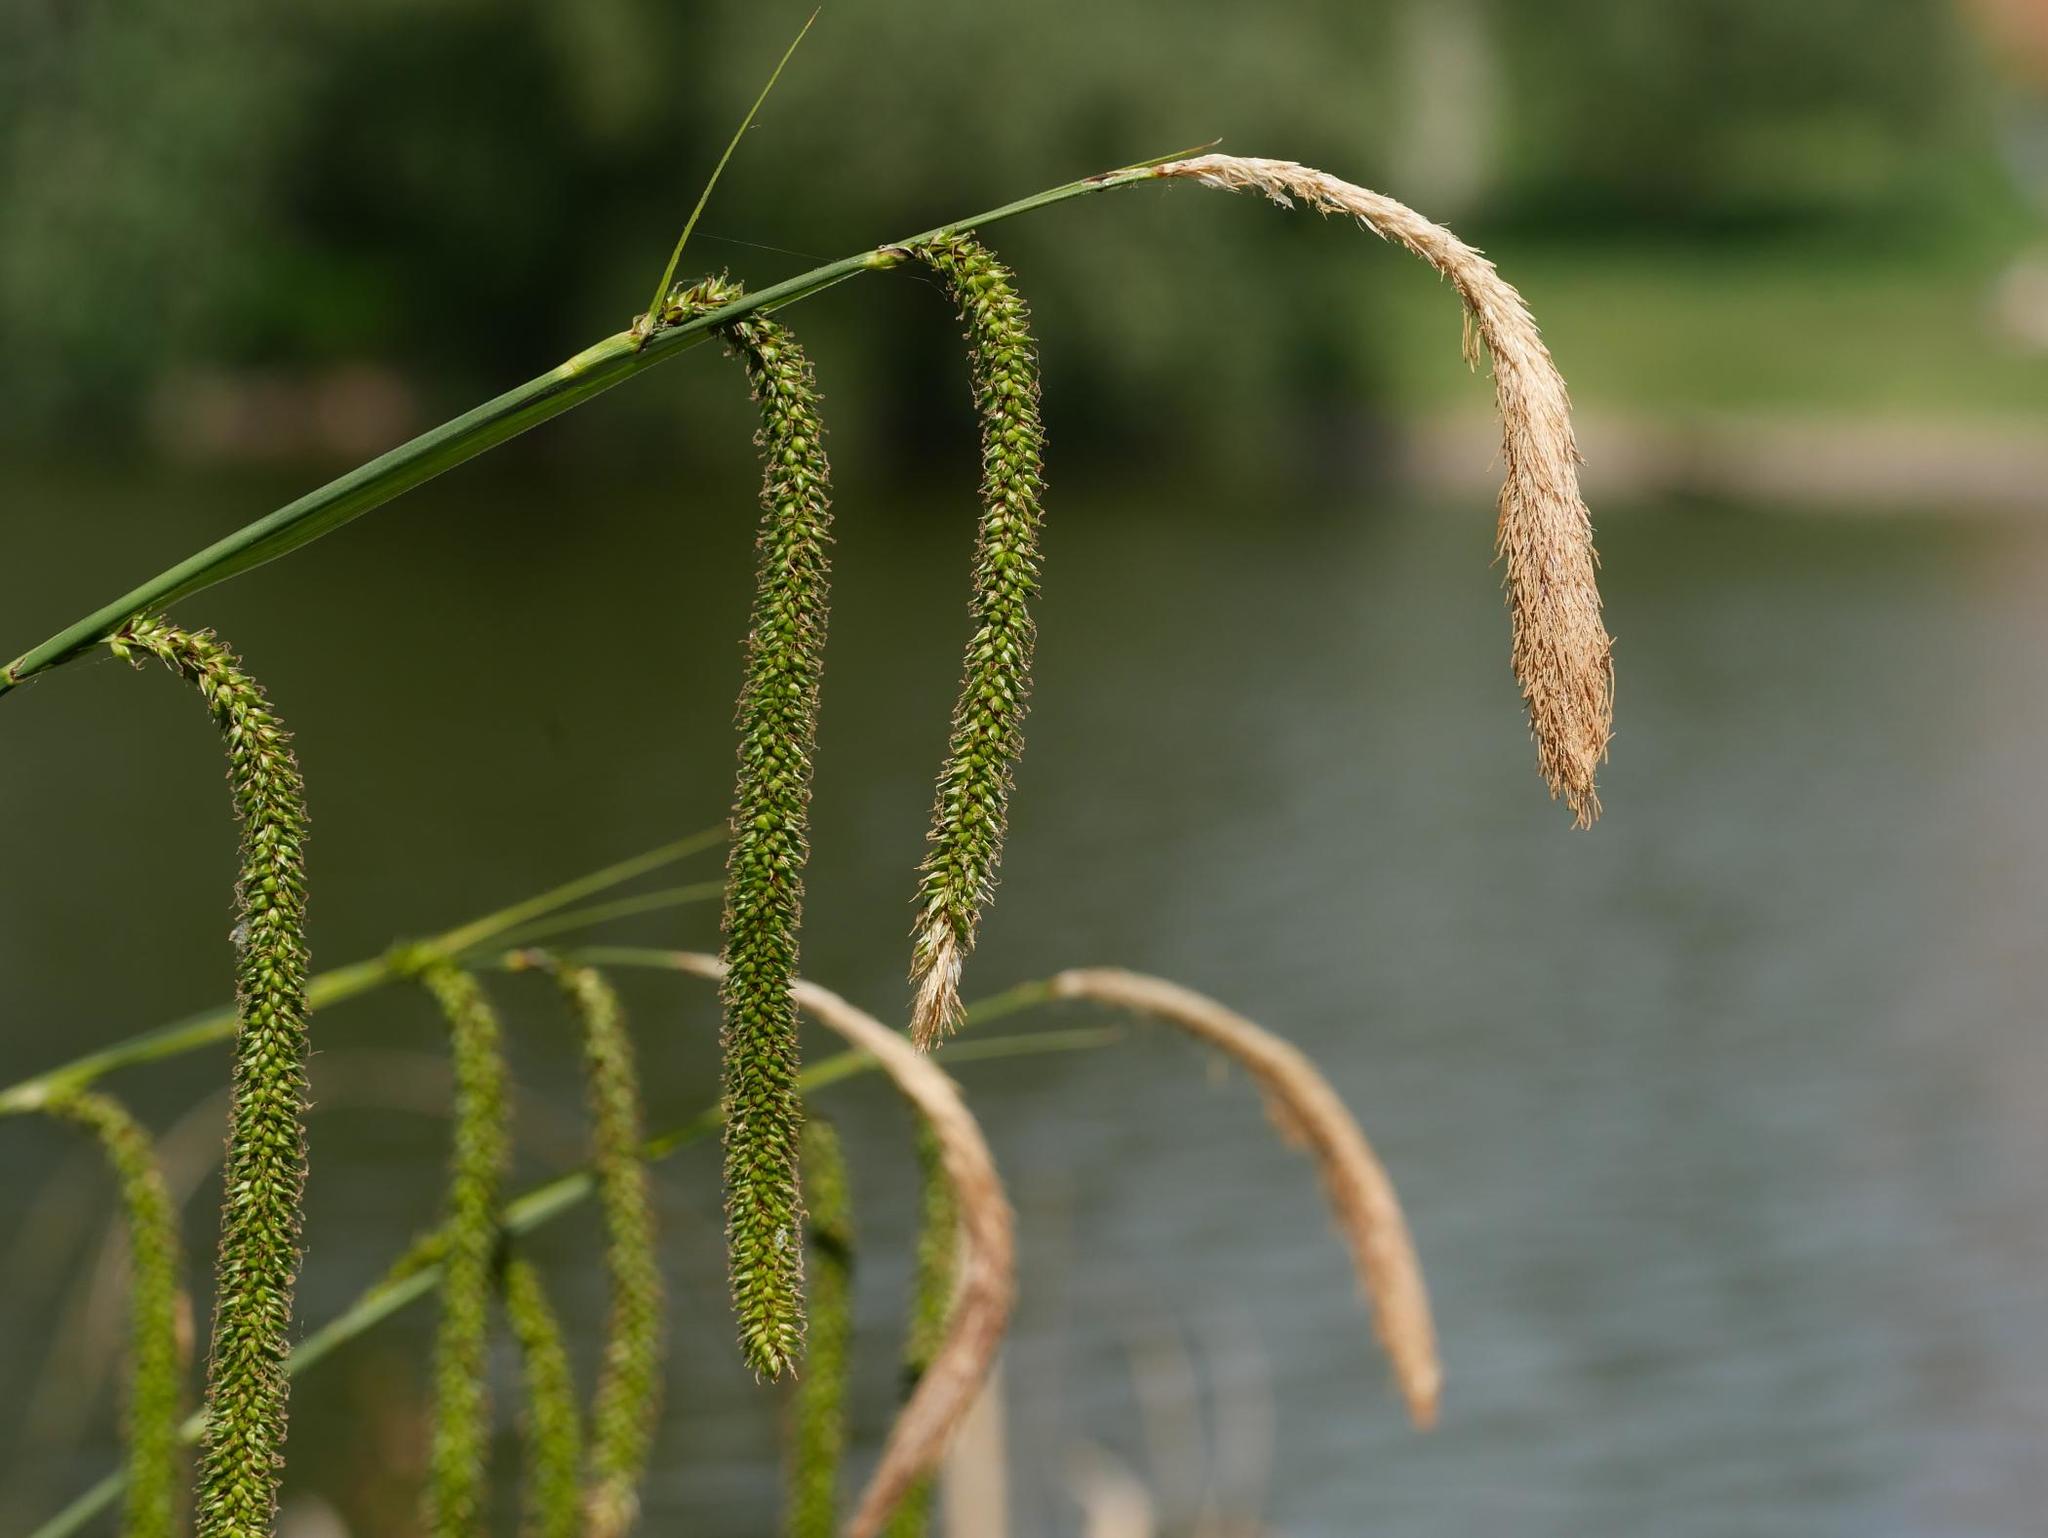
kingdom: Plantae
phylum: Tracheophyta
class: Liliopsida
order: Poales
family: Cyperaceae
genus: Carex
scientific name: Carex pendula
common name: Pendulous sedge
